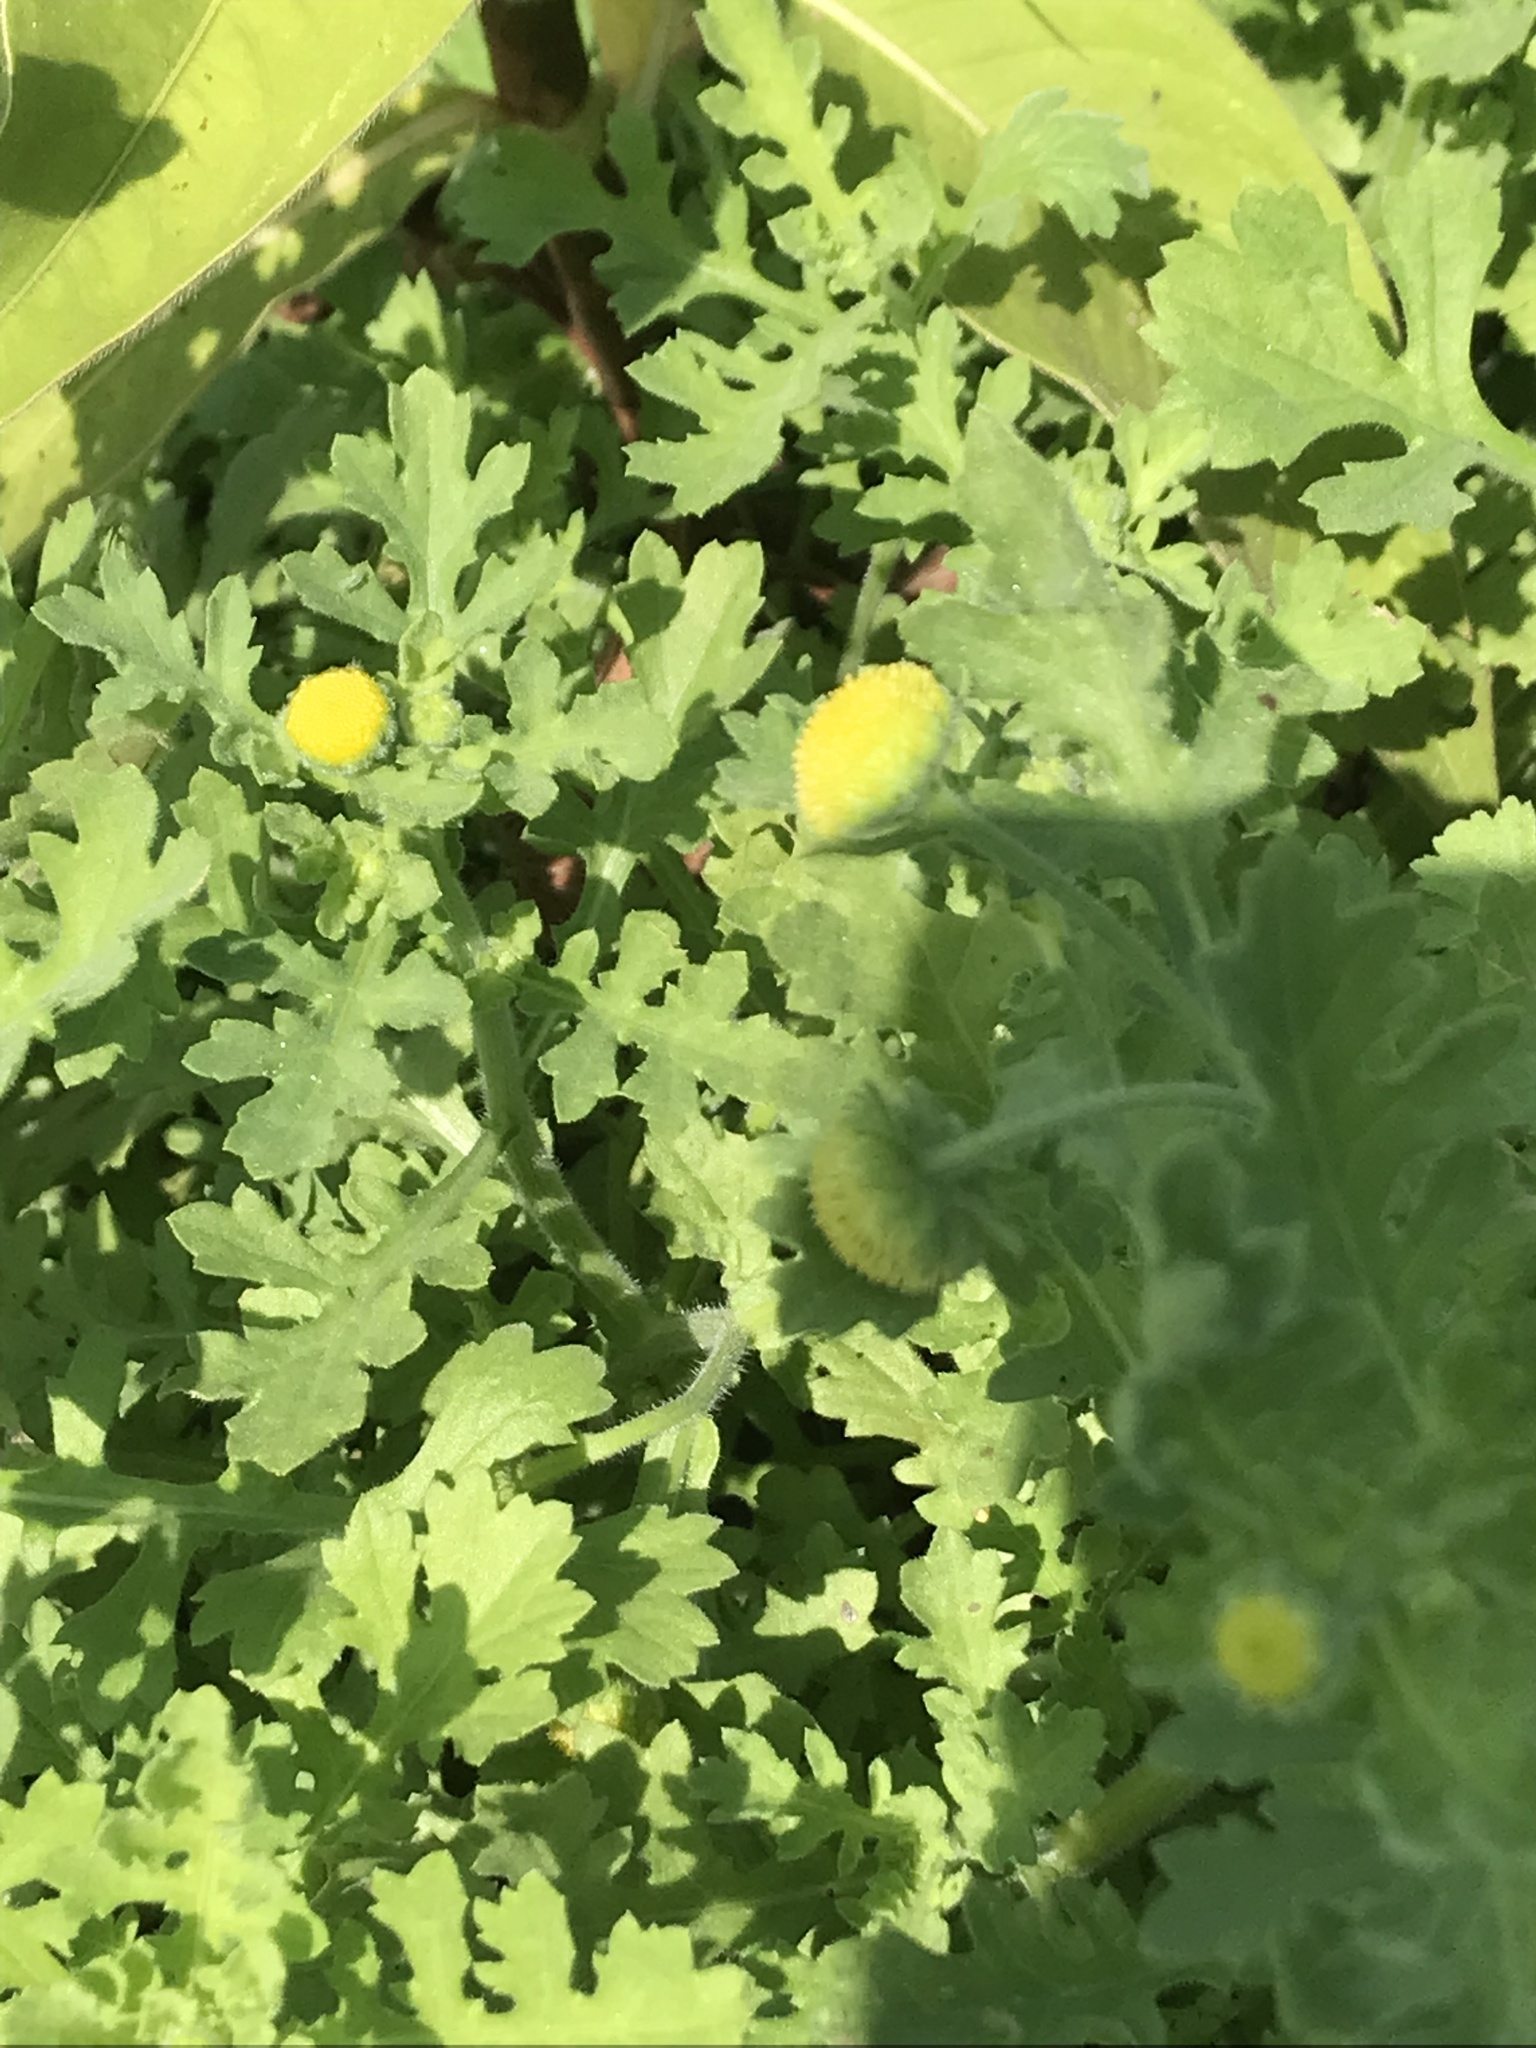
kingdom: Plantae
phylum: Tracheophyta
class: Magnoliopsida
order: Asterales
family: Asteraceae
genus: Grangea
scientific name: Grangea maderaspatana
